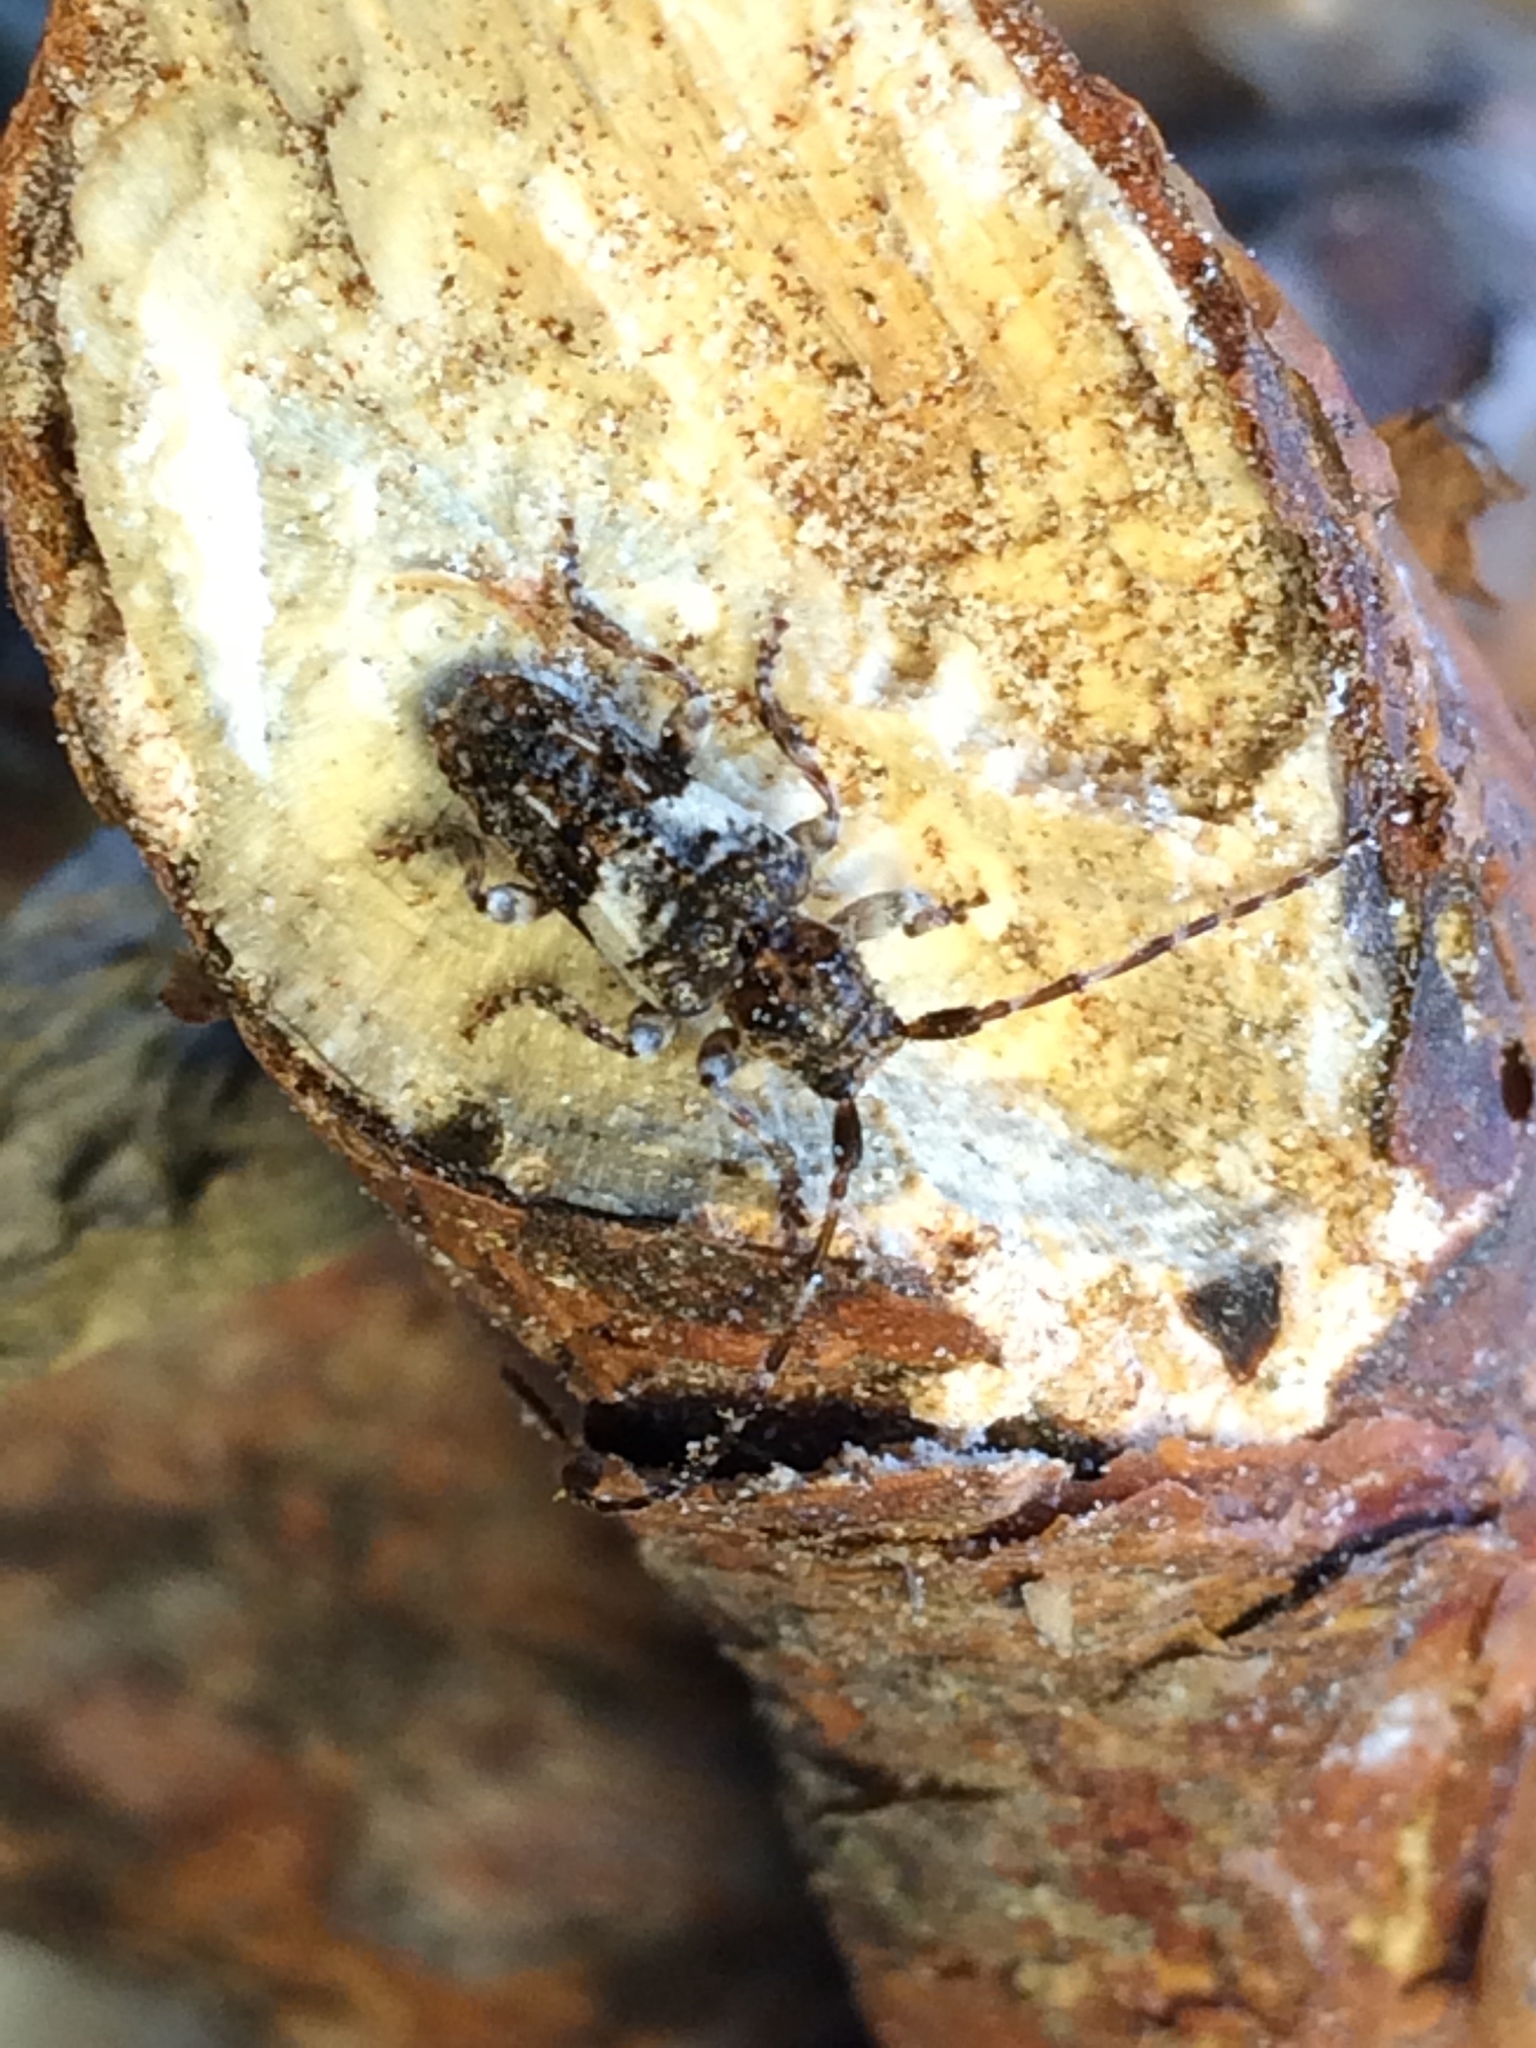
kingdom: Animalia
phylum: Arthropoda
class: Insecta
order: Coleoptera
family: Cerambycidae
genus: Pogonocherus
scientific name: Pogonocherus fasciculatus
